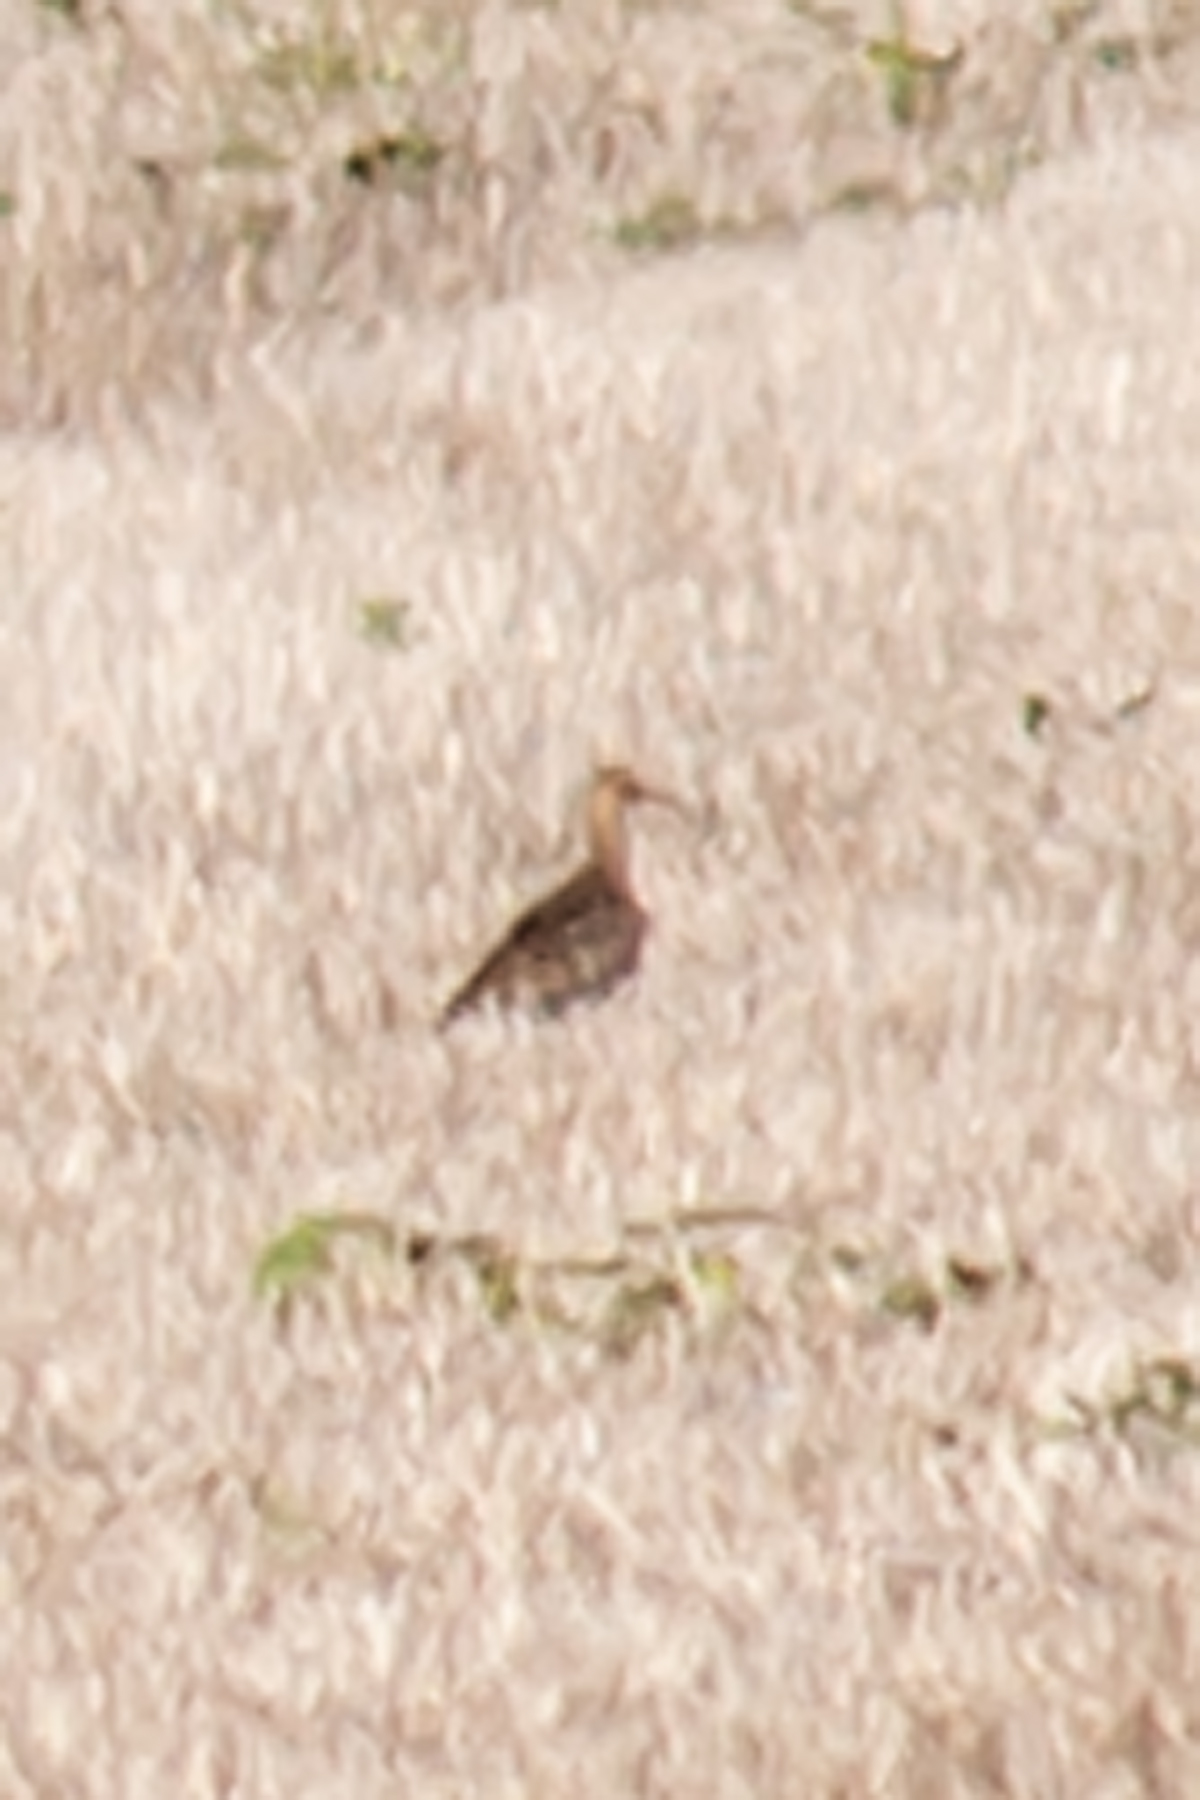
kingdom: Animalia
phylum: Chordata
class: Aves
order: Charadriiformes
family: Scolopacidae
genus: Bartramia
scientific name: Bartramia longicauda
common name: Upland sandpiper
